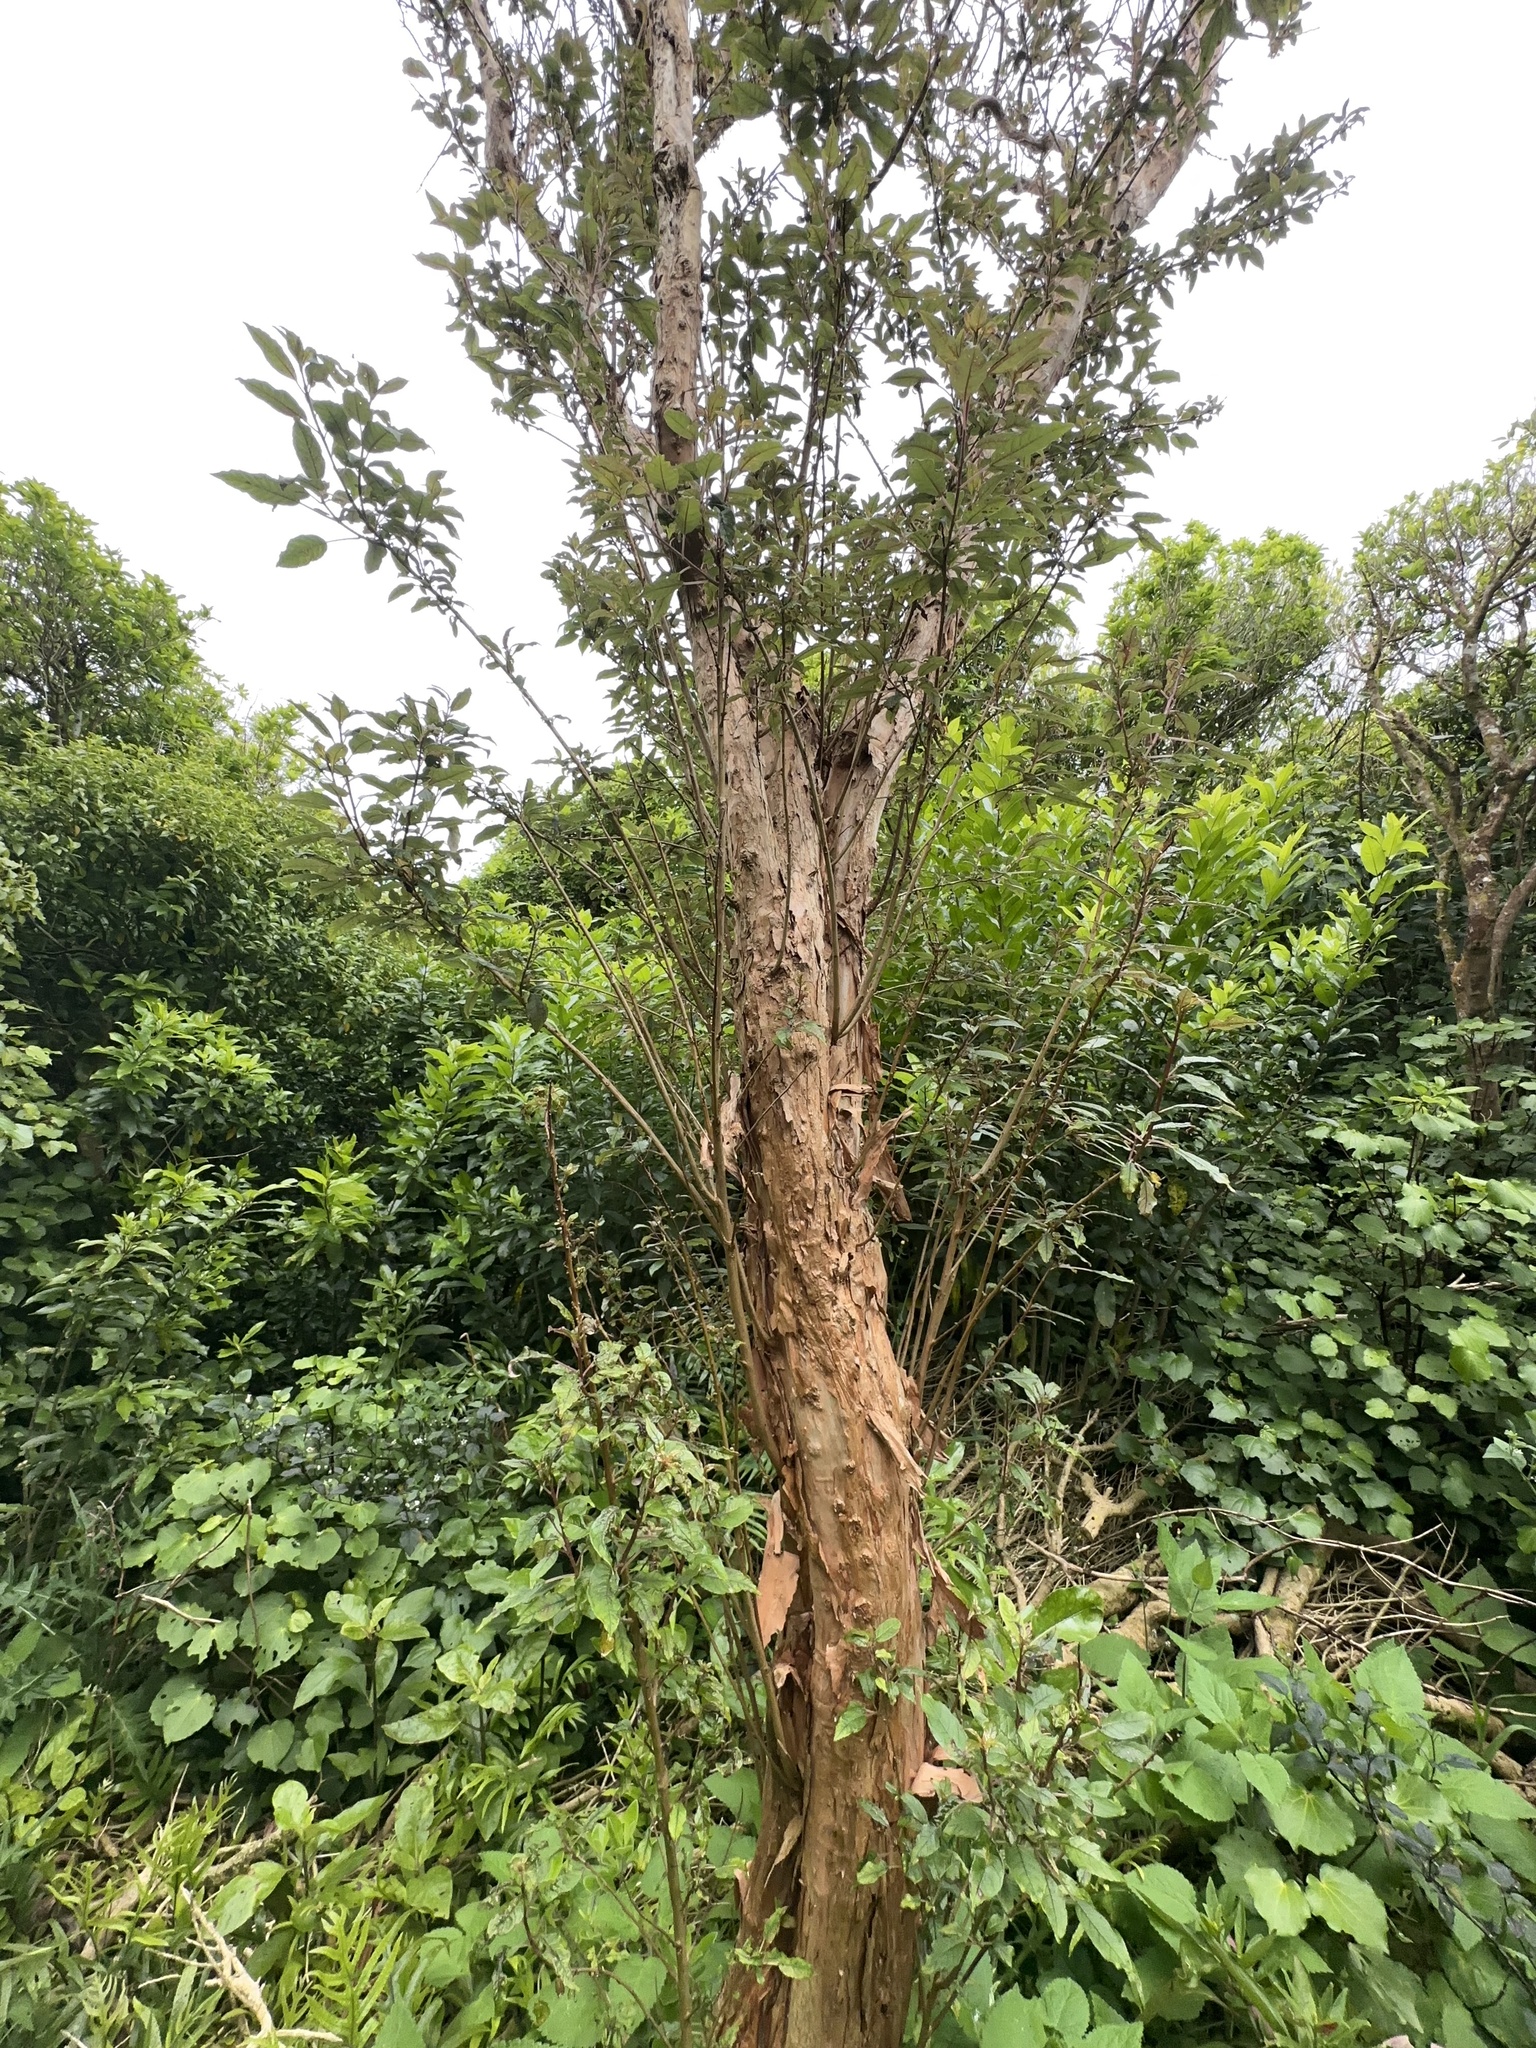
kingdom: Plantae
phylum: Tracheophyta
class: Magnoliopsida
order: Myrtales
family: Onagraceae
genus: Fuchsia
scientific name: Fuchsia excorticata
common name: Tree fuchsia
